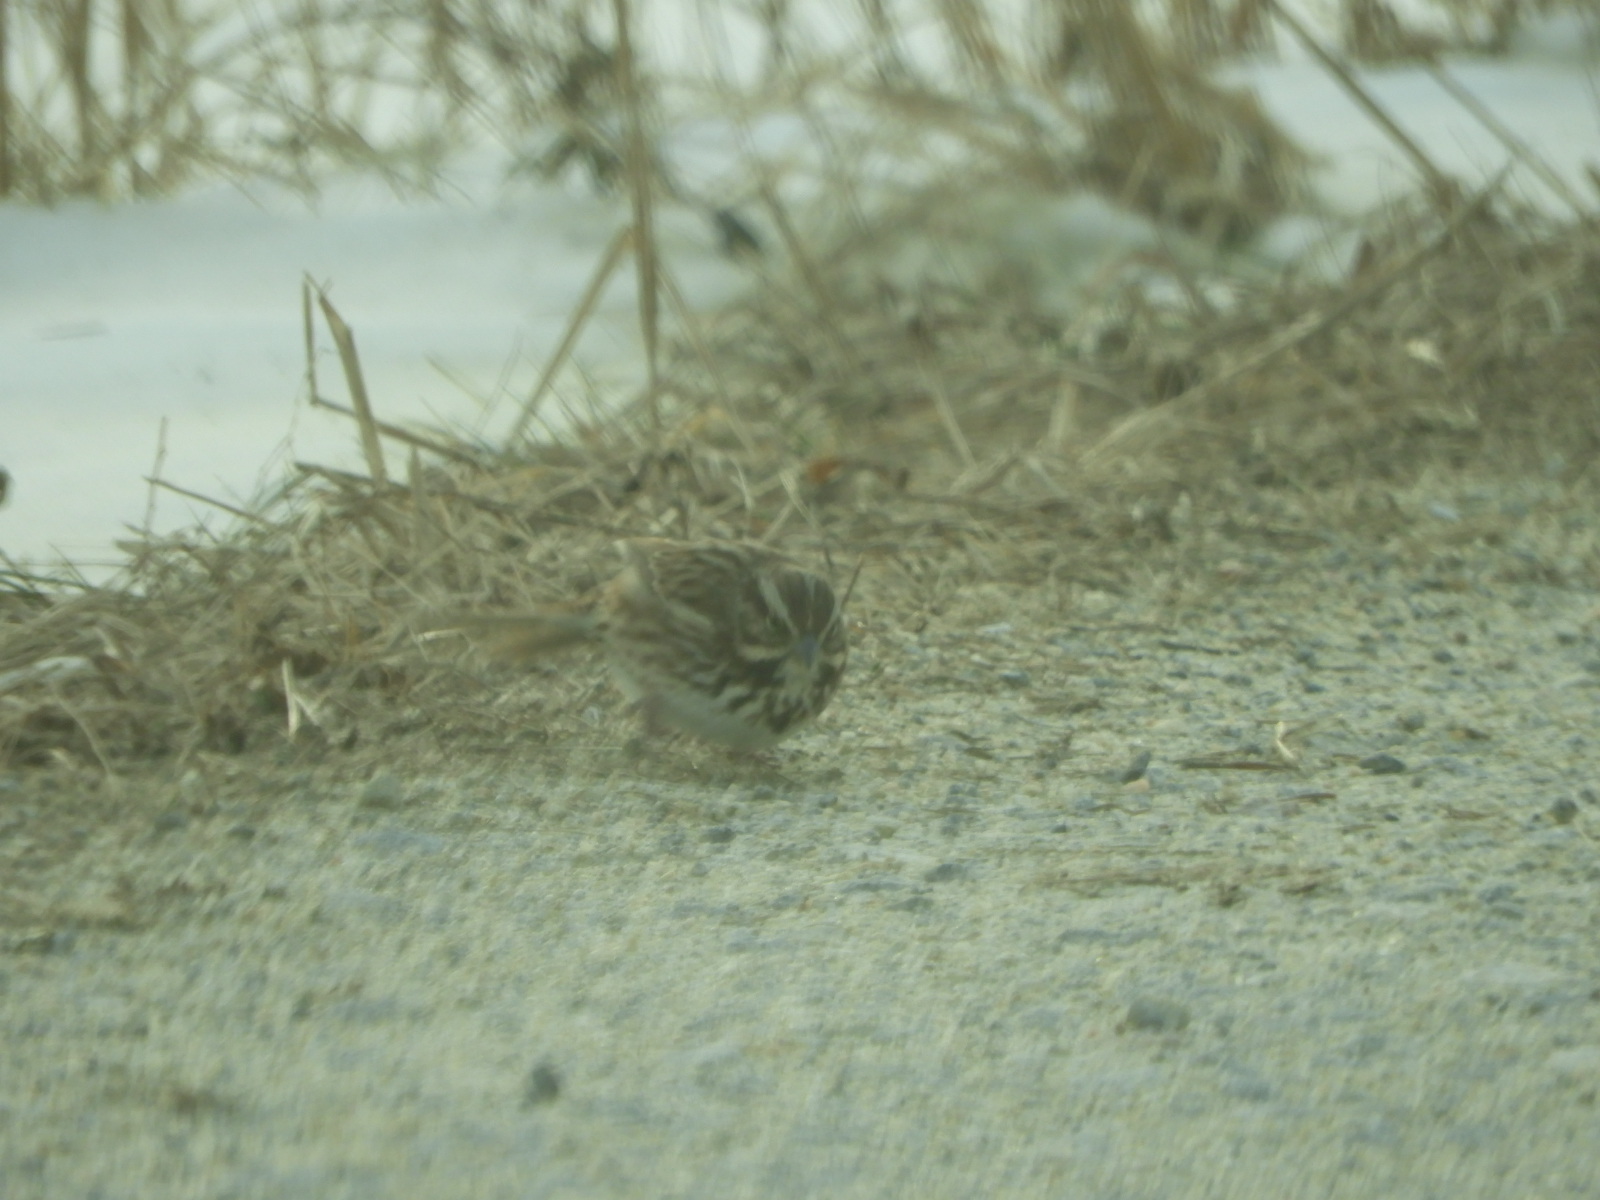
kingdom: Animalia
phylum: Chordata
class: Aves
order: Passeriformes
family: Passerellidae
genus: Melospiza
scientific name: Melospiza melodia
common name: Song sparrow
